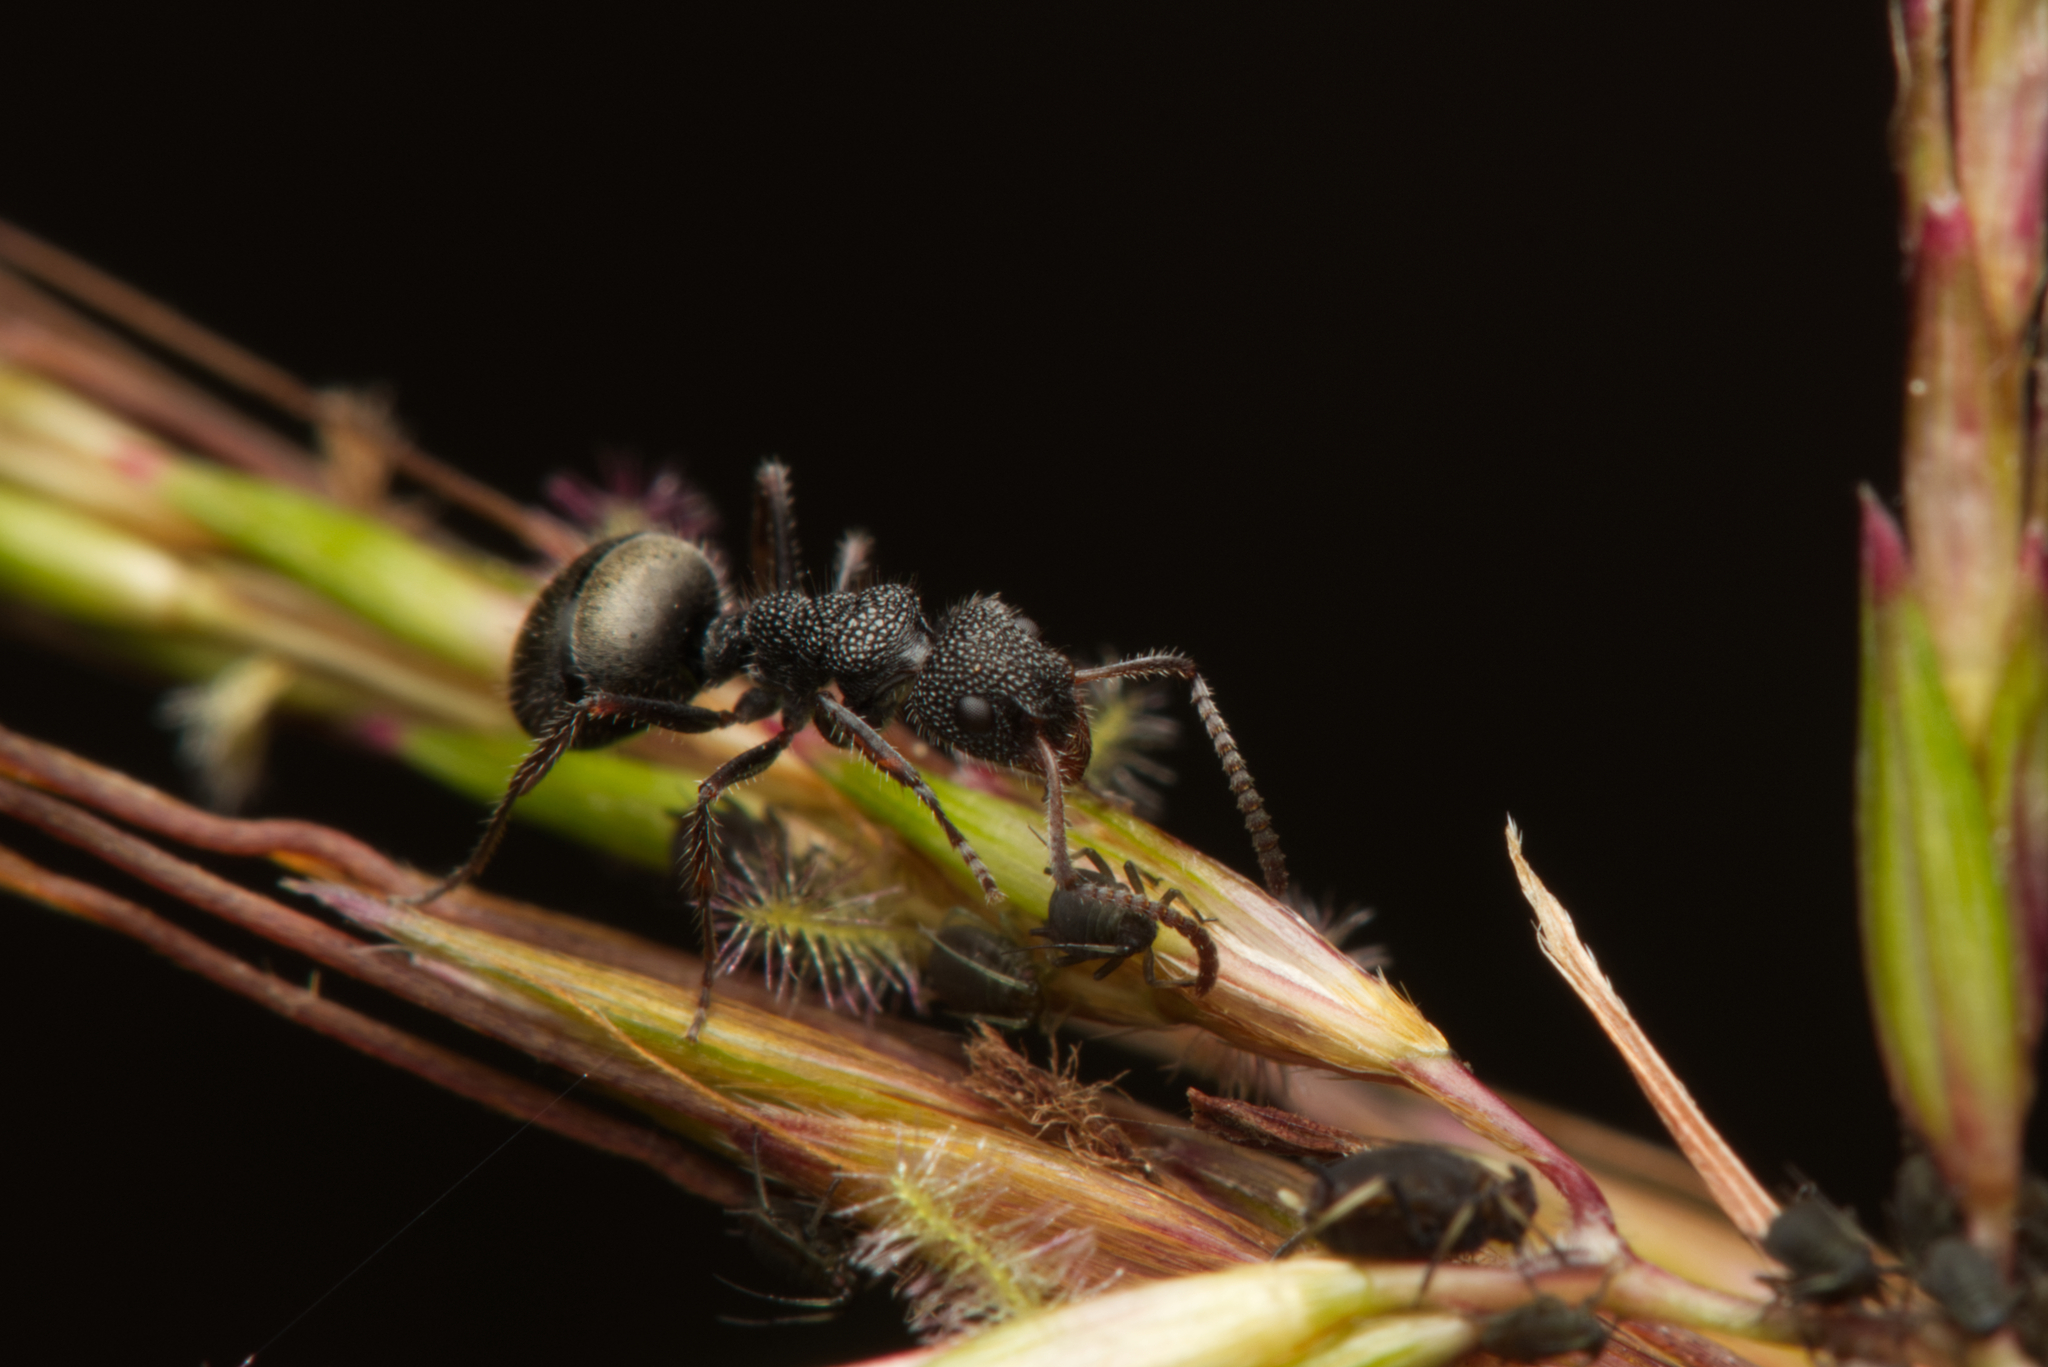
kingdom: Animalia
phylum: Arthropoda
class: Insecta
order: Hymenoptera
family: Formicidae
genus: Dolichoderus
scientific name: Dolichoderus scrobiculatus
